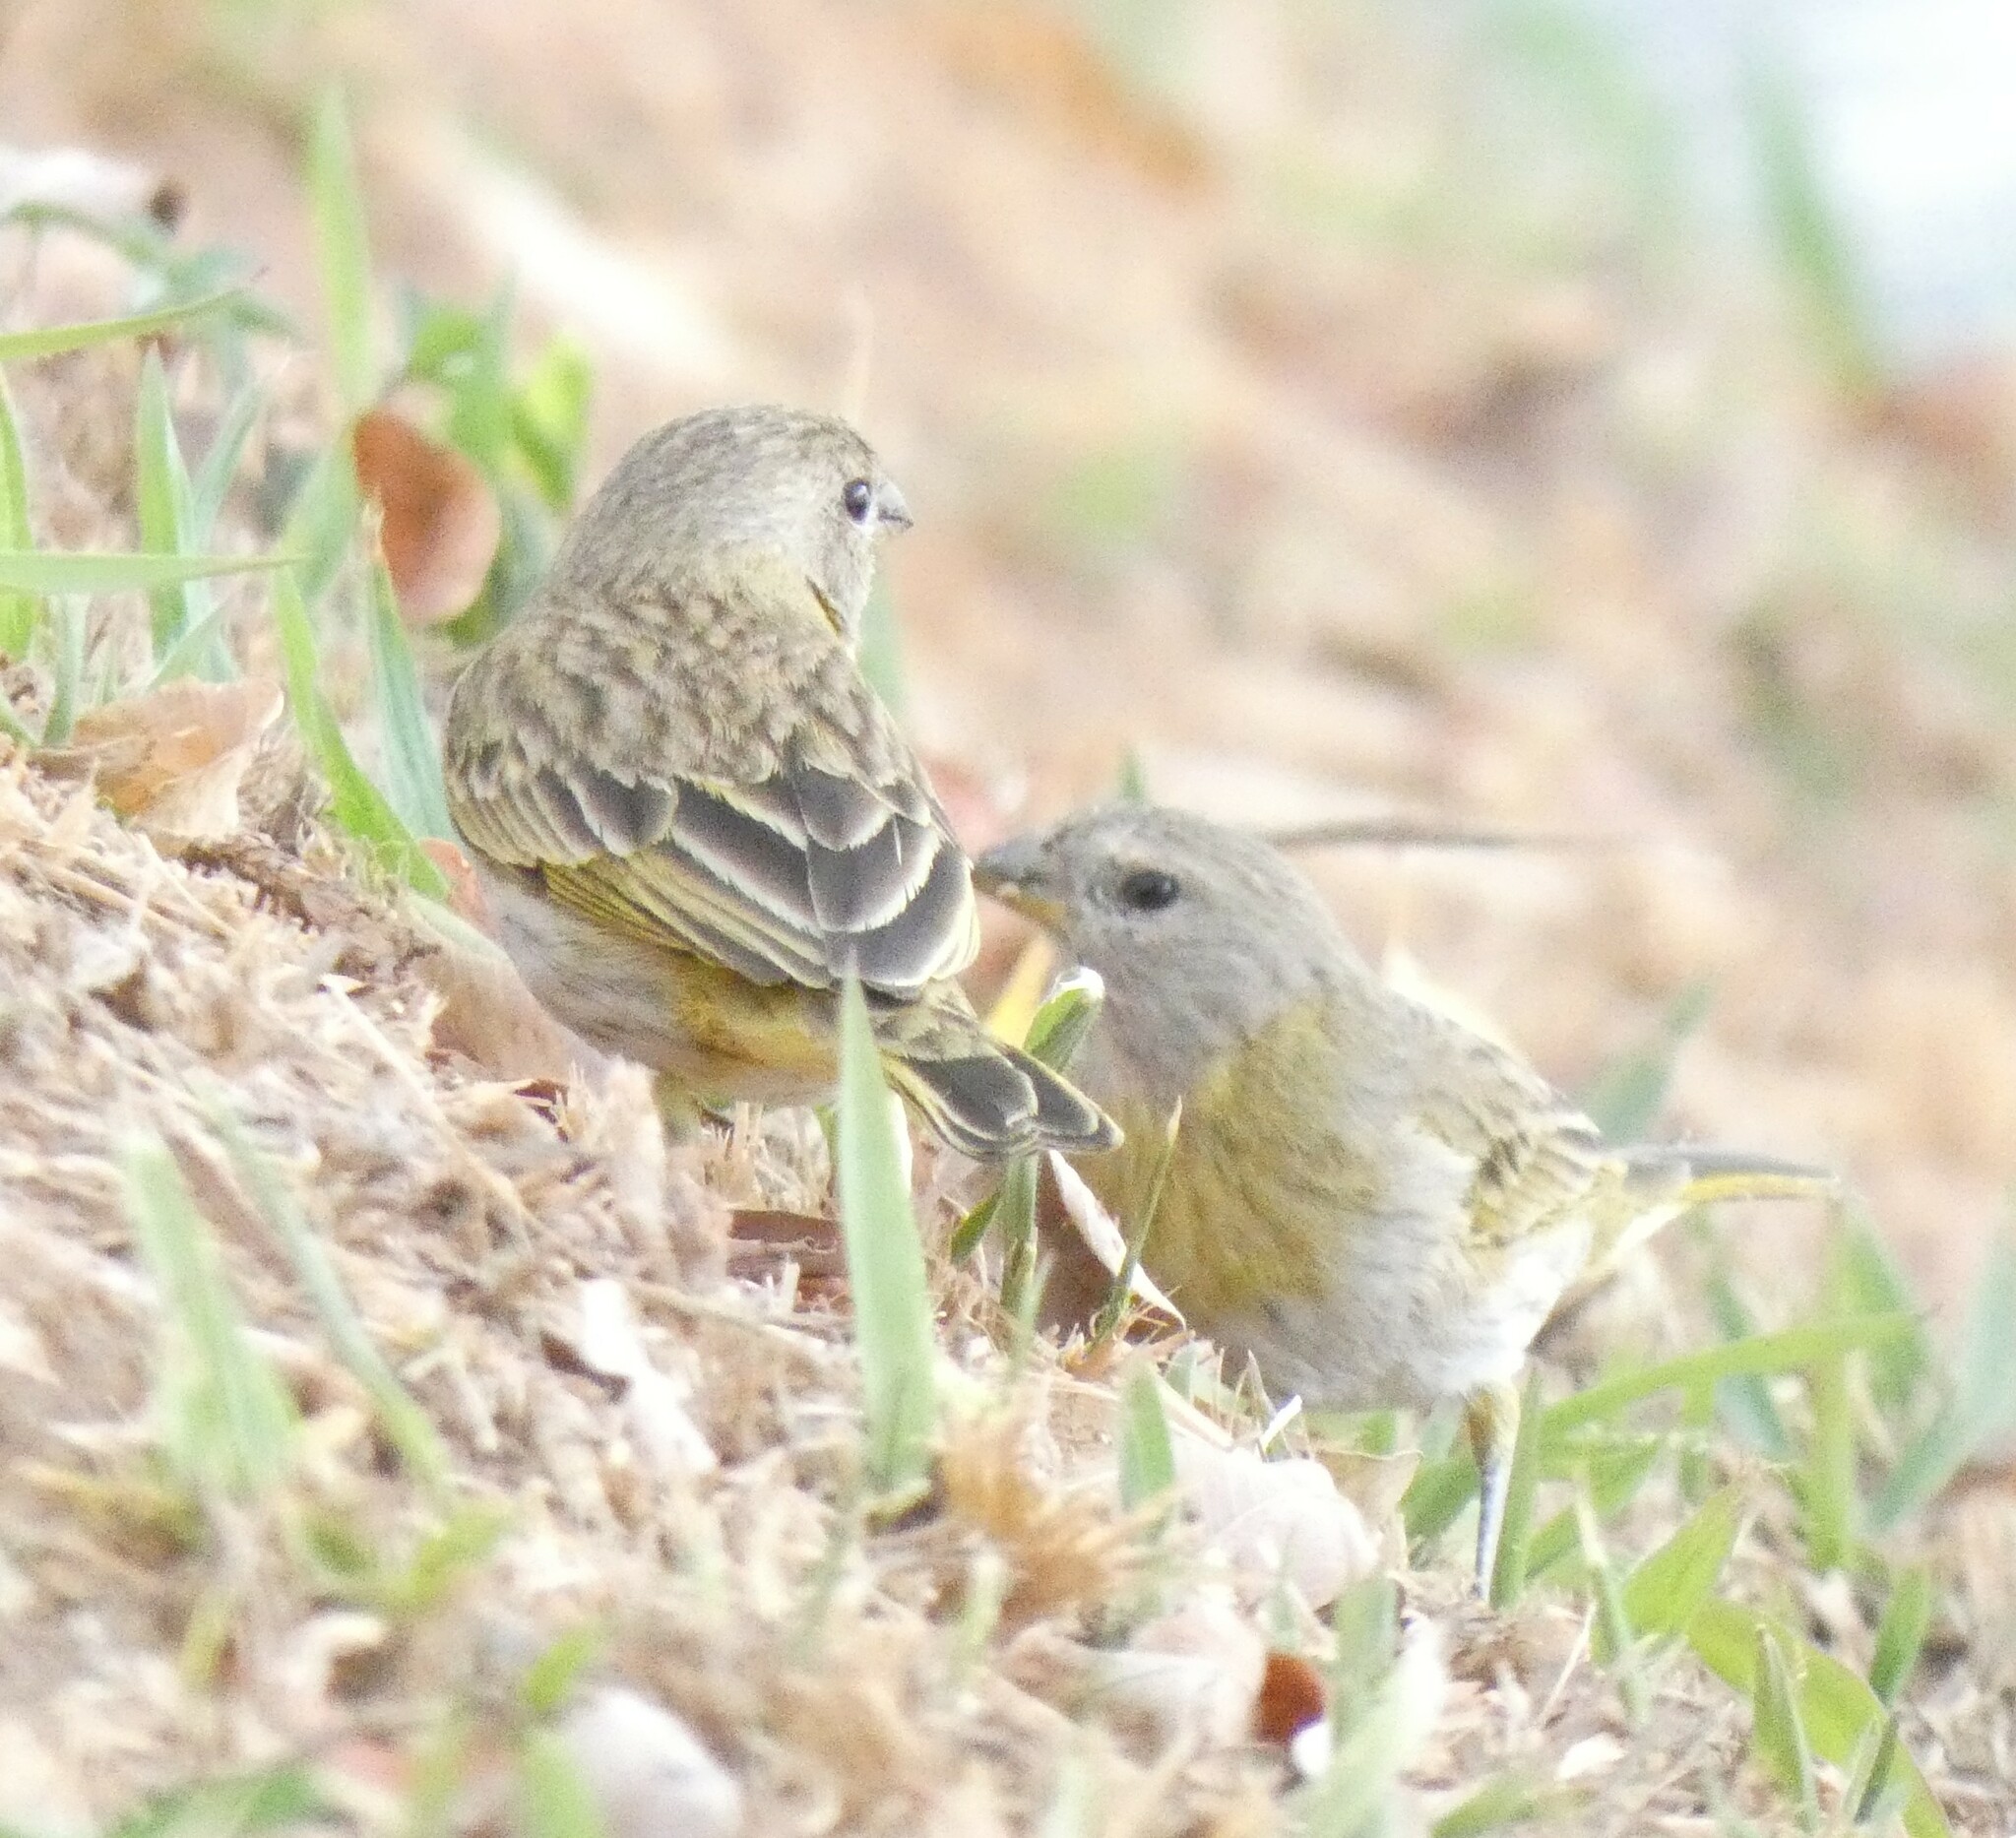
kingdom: Animalia
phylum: Chordata
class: Aves
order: Passeriformes
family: Thraupidae
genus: Sicalis
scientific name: Sicalis flaveola
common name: Saffron finch
